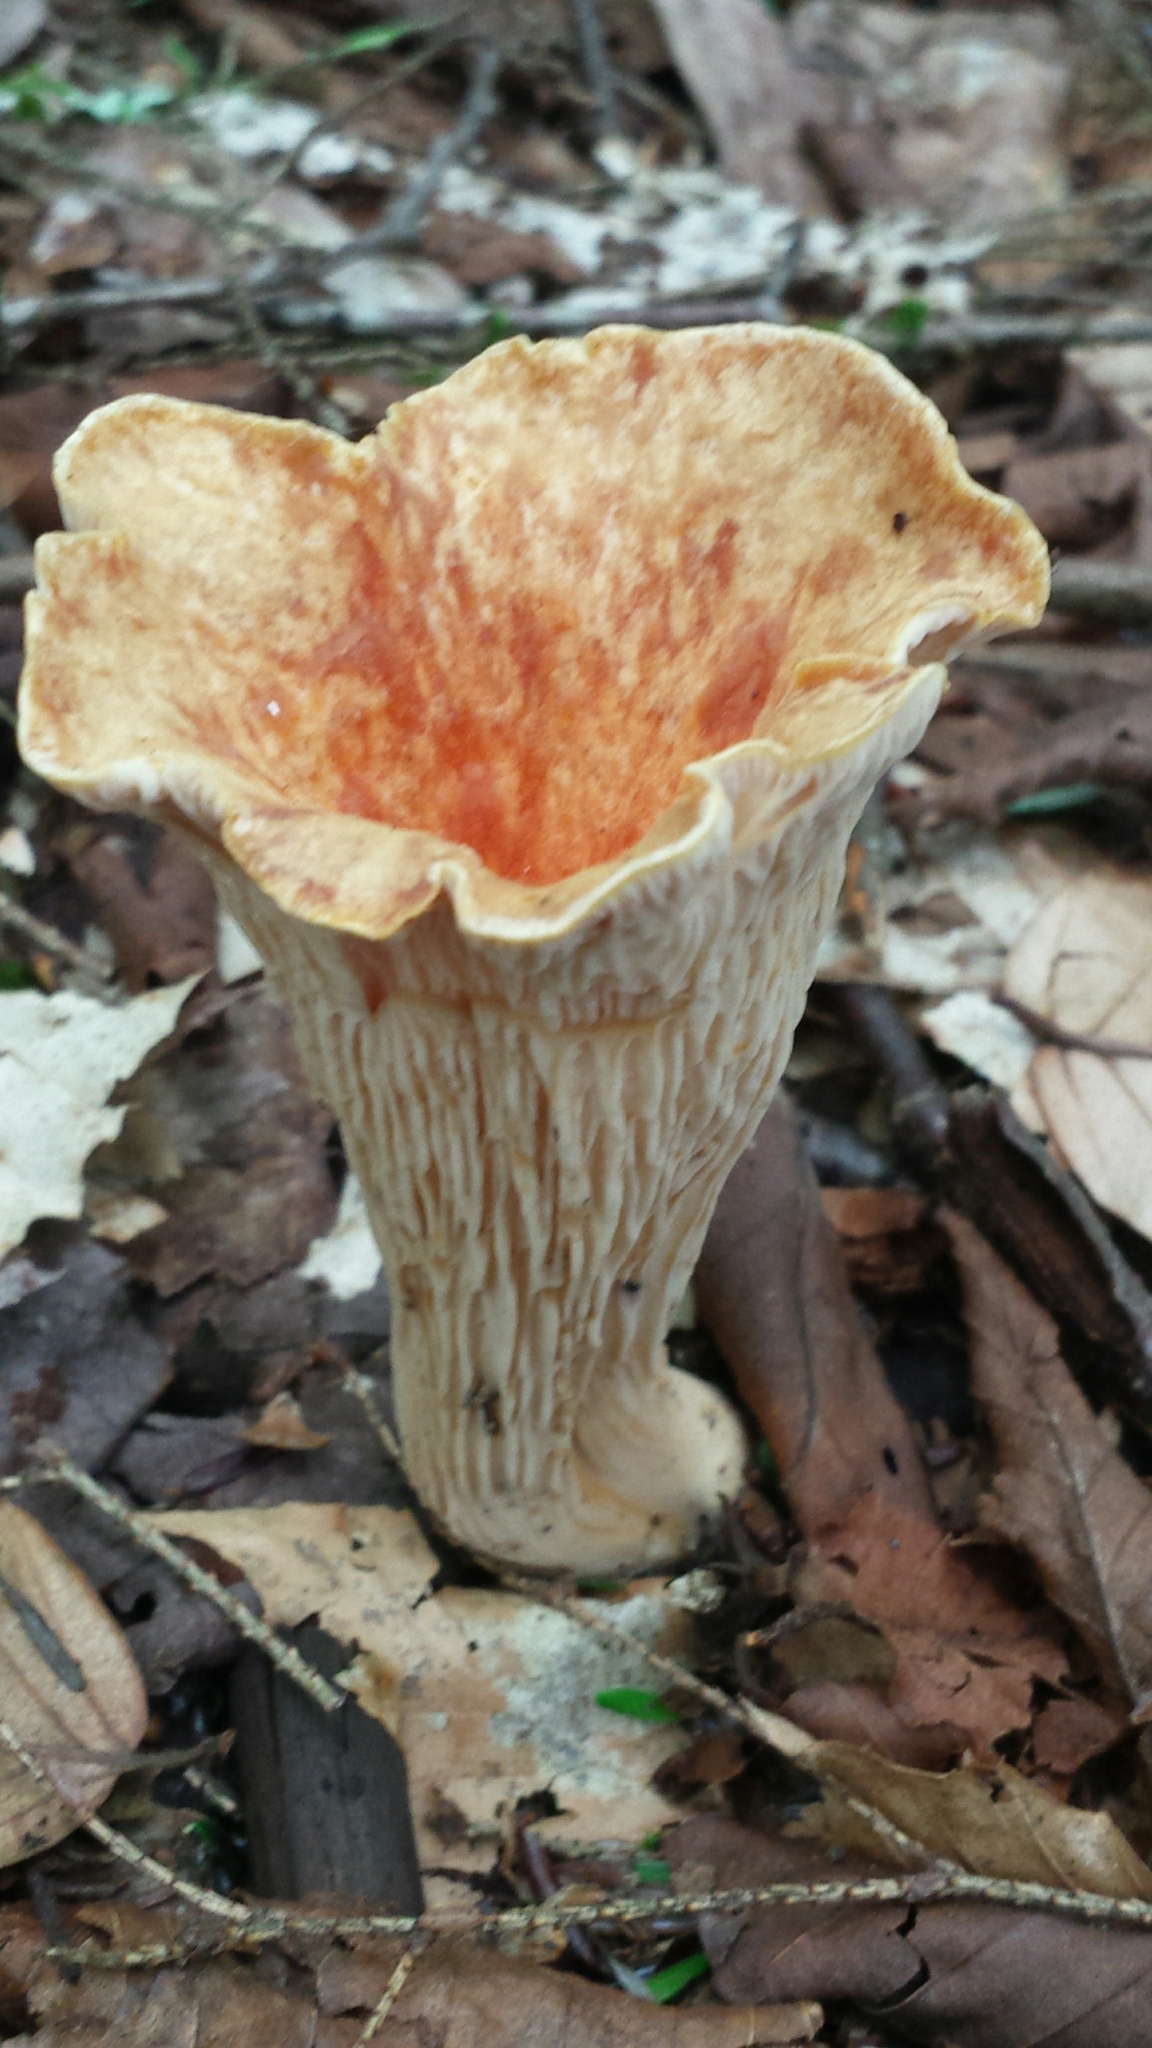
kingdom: Fungi
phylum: Basidiomycota
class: Agaricomycetes
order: Gomphales
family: Gomphaceae
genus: Turbinellus
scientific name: Turbinellus floccosus
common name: Scaly chanterelle
